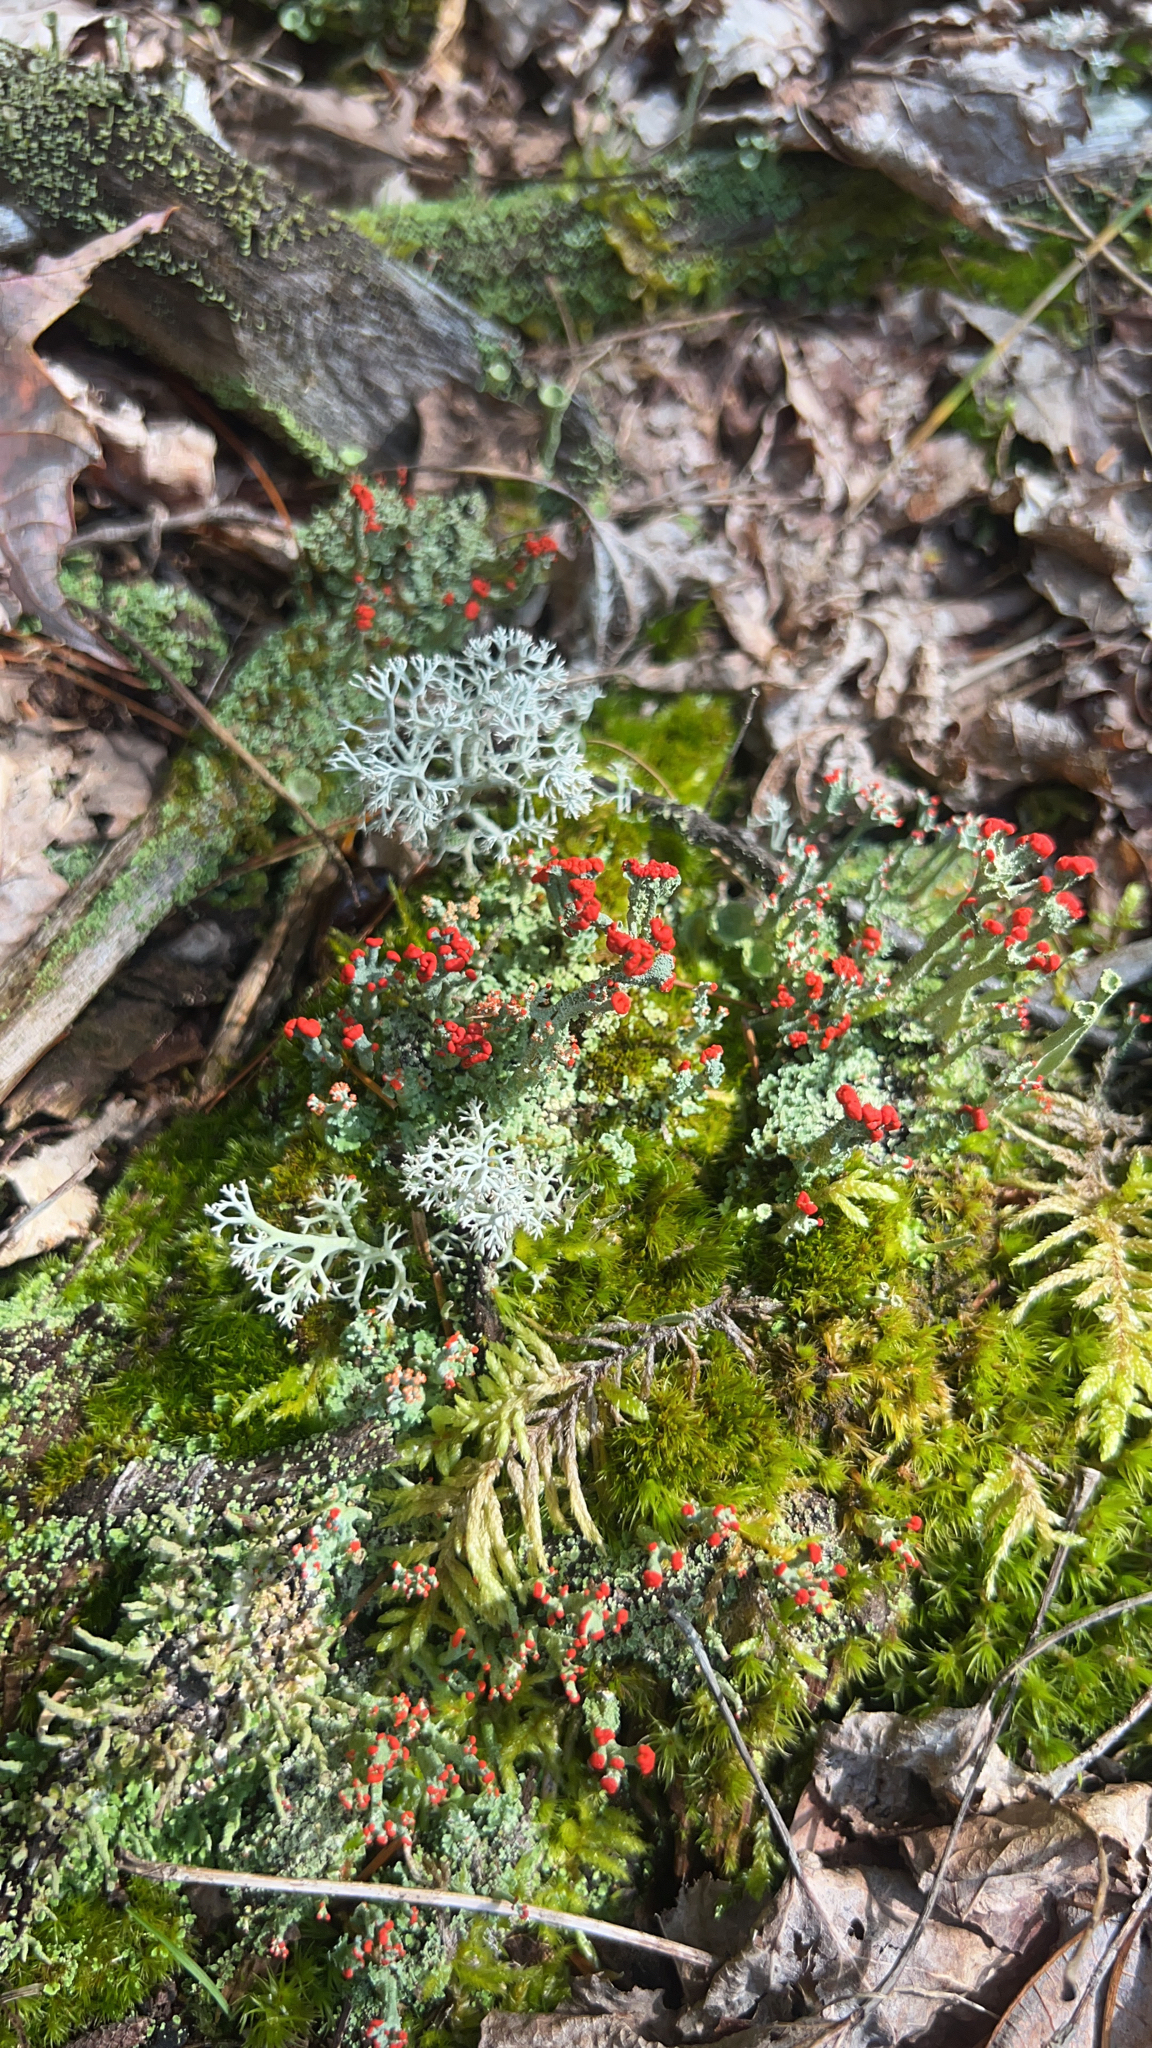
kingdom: Fungi
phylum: Ascomycota
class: Lecanoromycetes
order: Lecanorales
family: Cladoniaceae
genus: Cladonia
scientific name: Cladonia cristatella
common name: British soldier lichen
